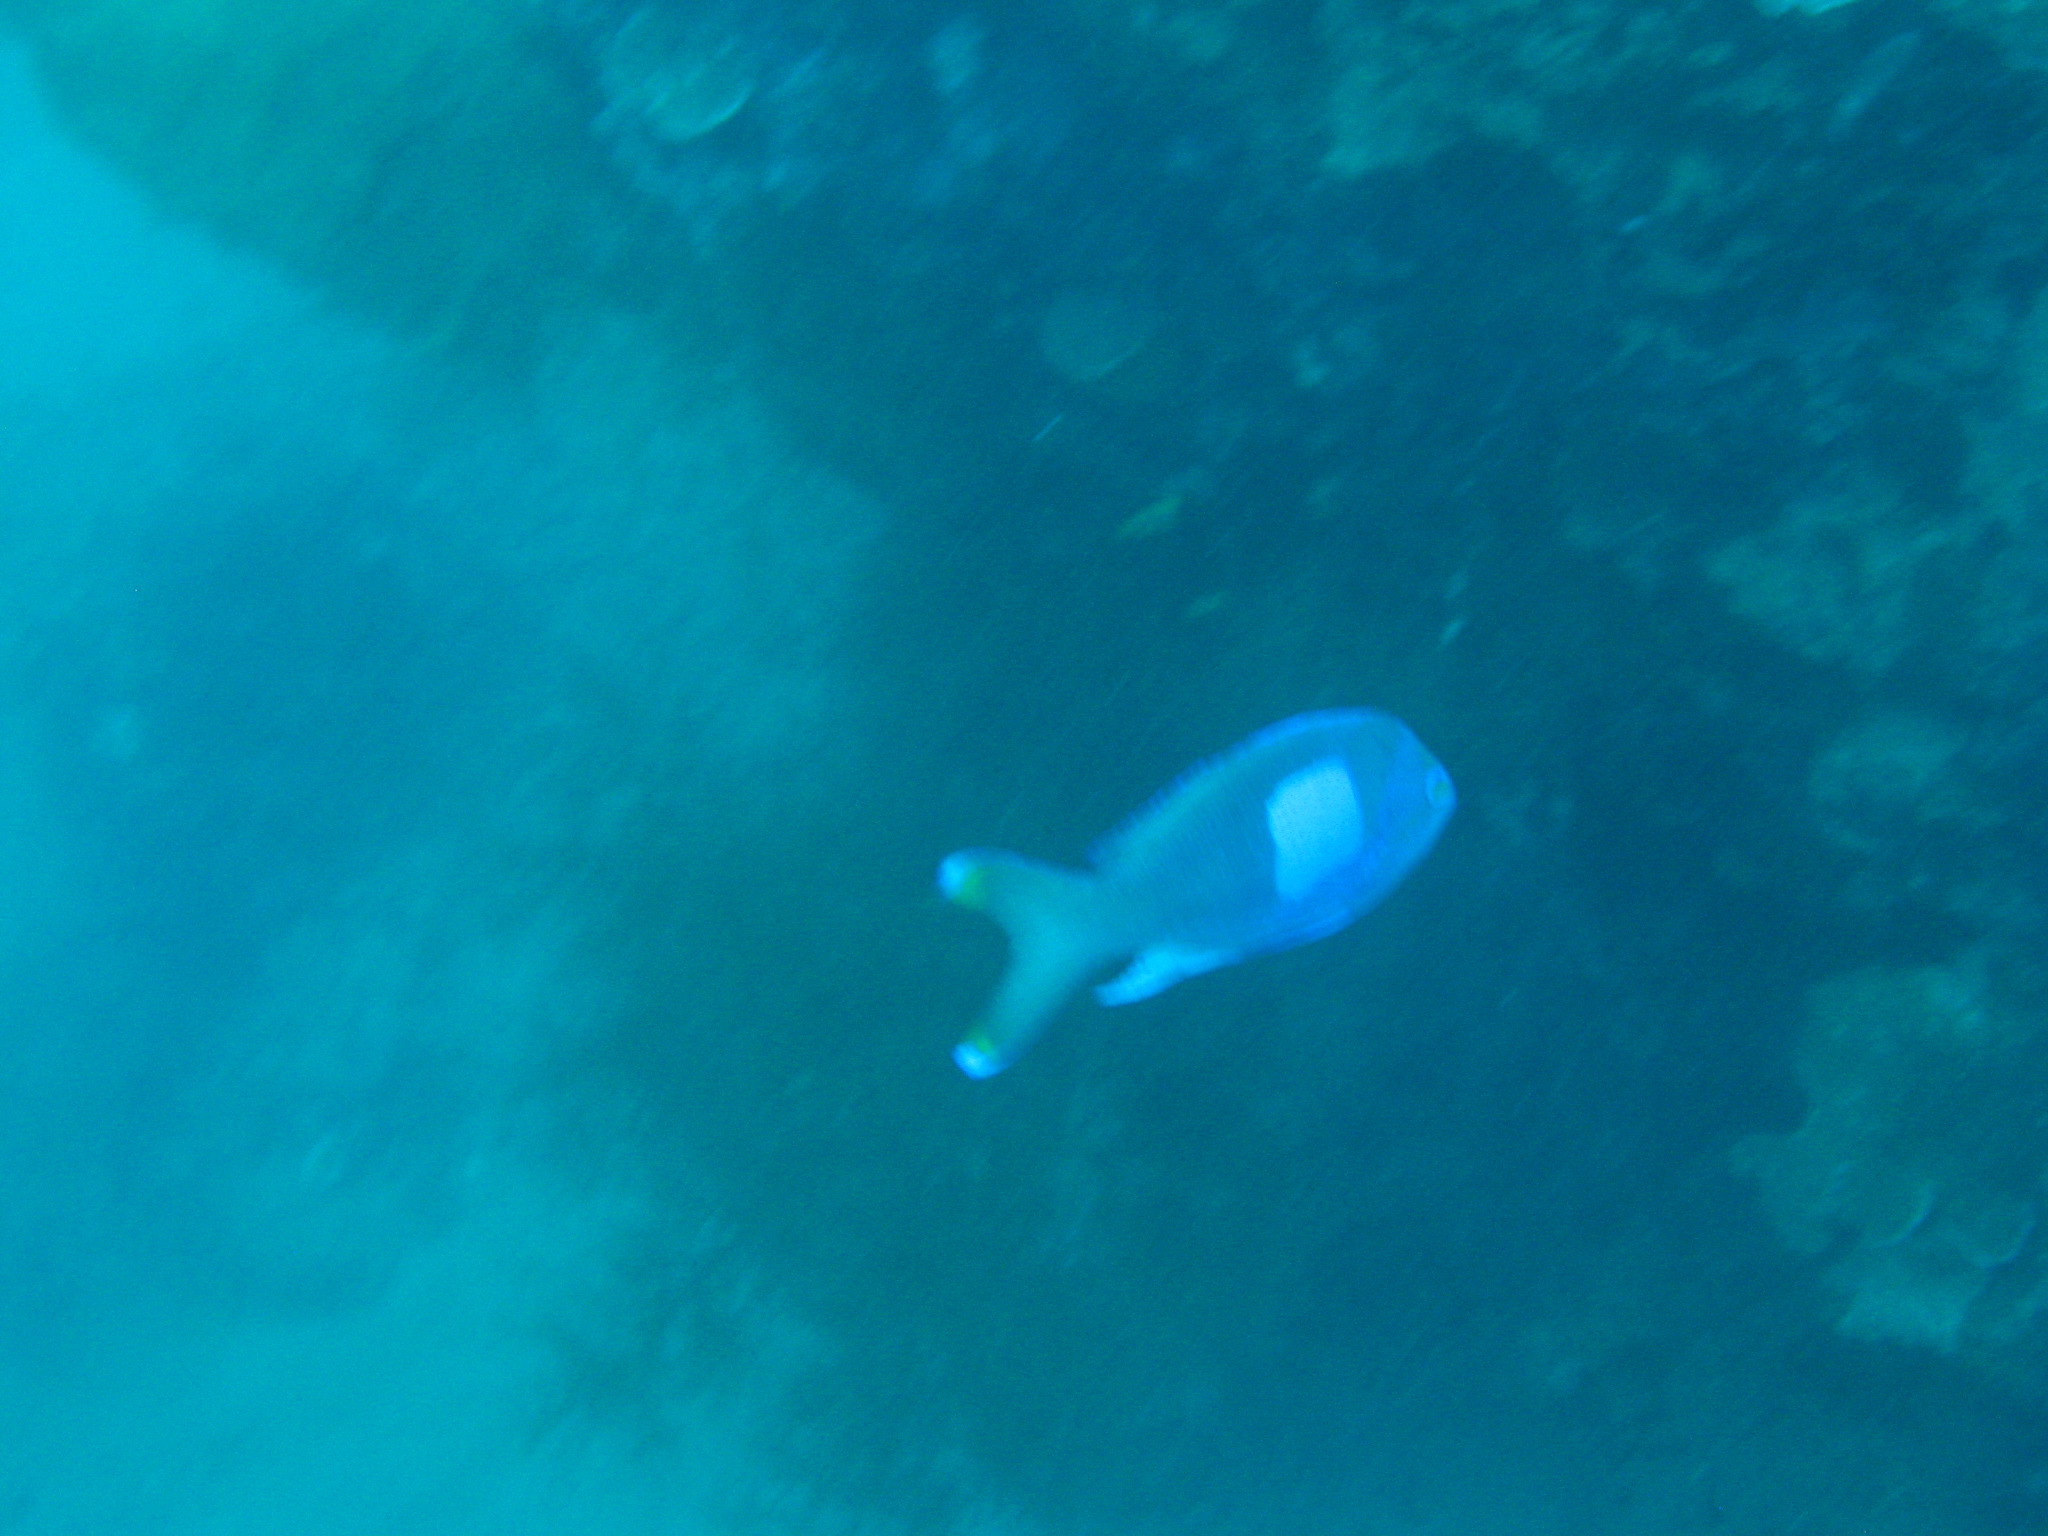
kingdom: Animalia
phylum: Chordata
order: Perciformes
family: Serranidae
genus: Pseudanthias
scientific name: Pseudanthias pleurotaenia
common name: Mirror basslet
